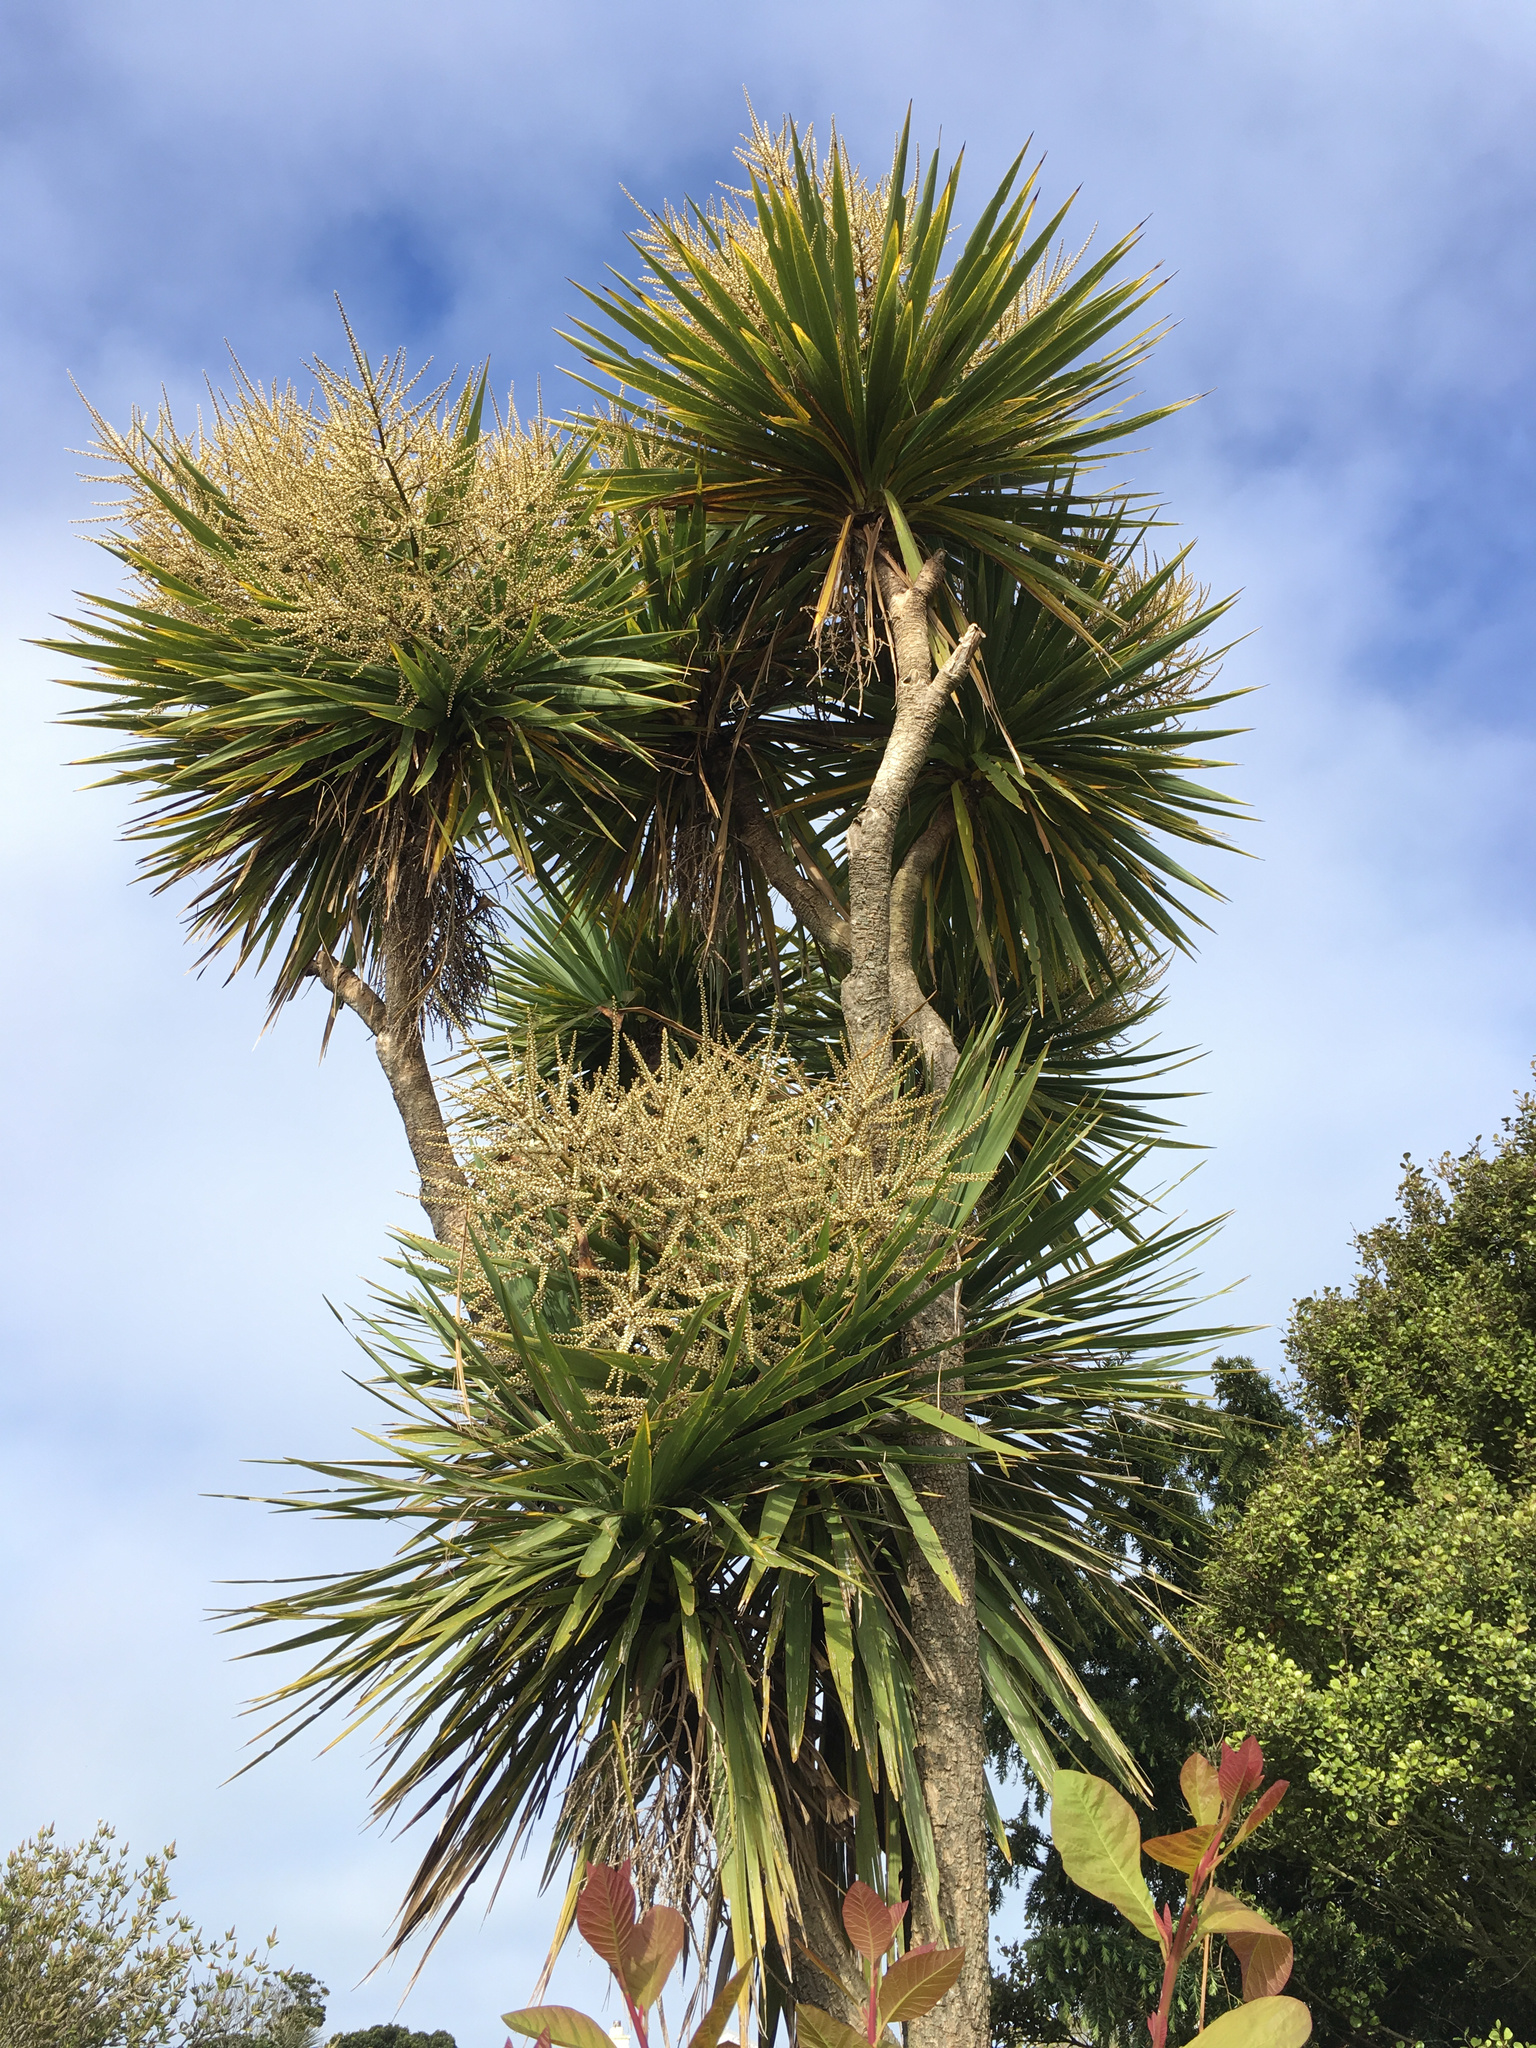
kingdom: Plantae
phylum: Tracheophyta
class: Liliopsida
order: Asparagales
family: Asparagaceae
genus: Cordyline
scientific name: Cordyline australis
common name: Cabbage-palm
